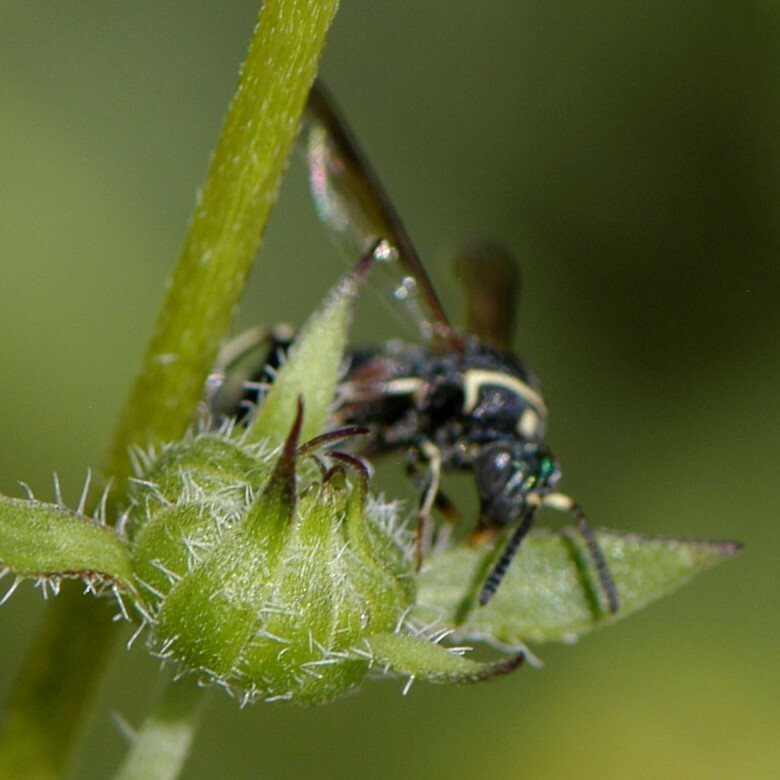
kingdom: Animalia
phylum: Arthropoda
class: Insecta
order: Hymenoptera
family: Leucospidae
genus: Leucospis
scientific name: Leucospis birkmani
